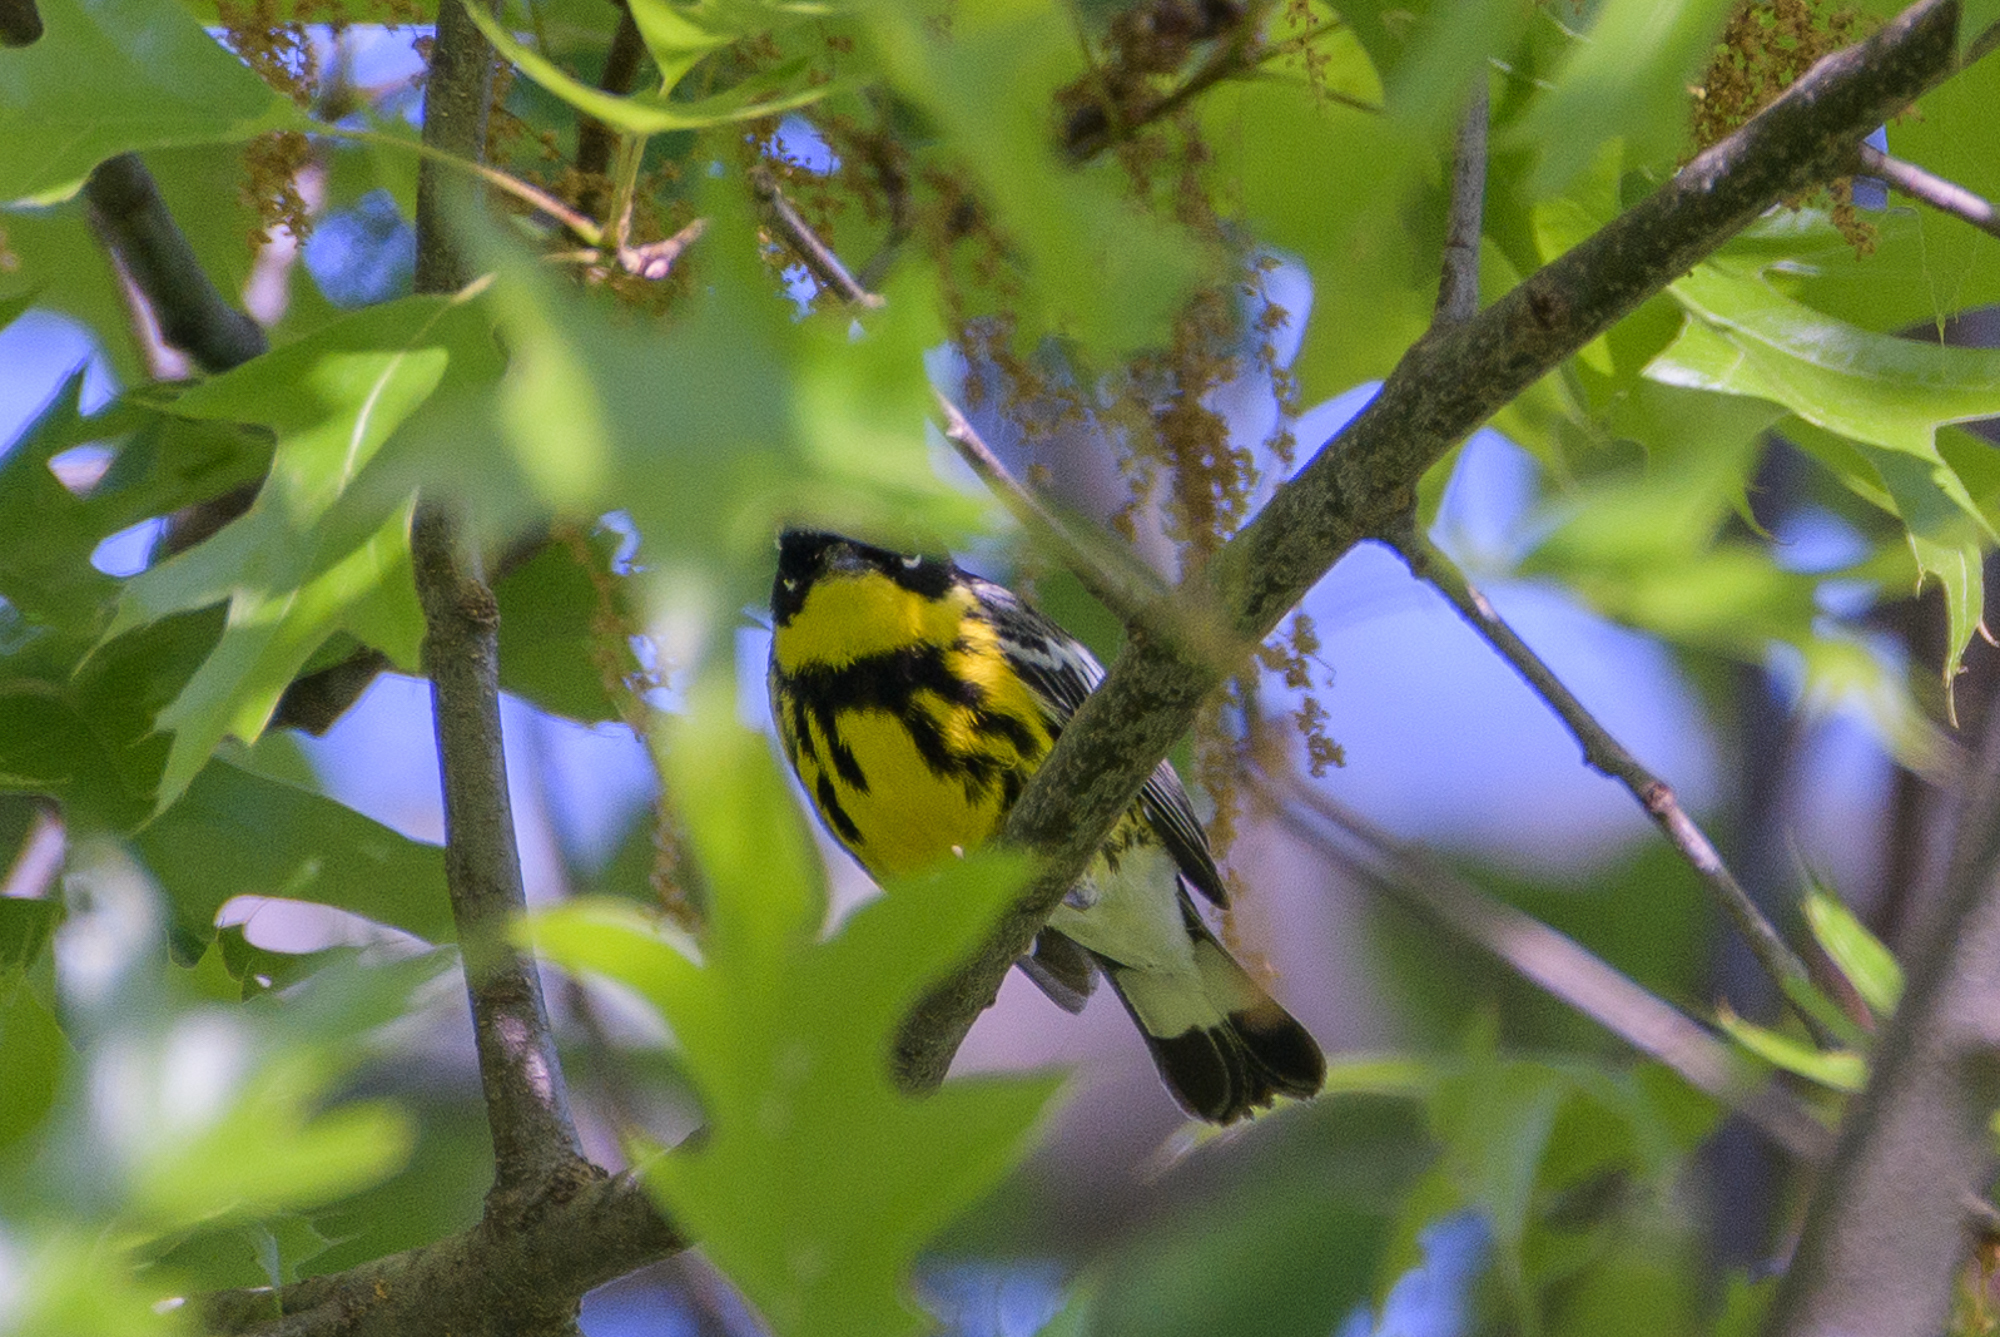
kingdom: Animalia
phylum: Chordata
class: Aves
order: Passeriformes
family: Parulidae
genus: Setophaga
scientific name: Setophaga magnolia
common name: Magnolia warbler
